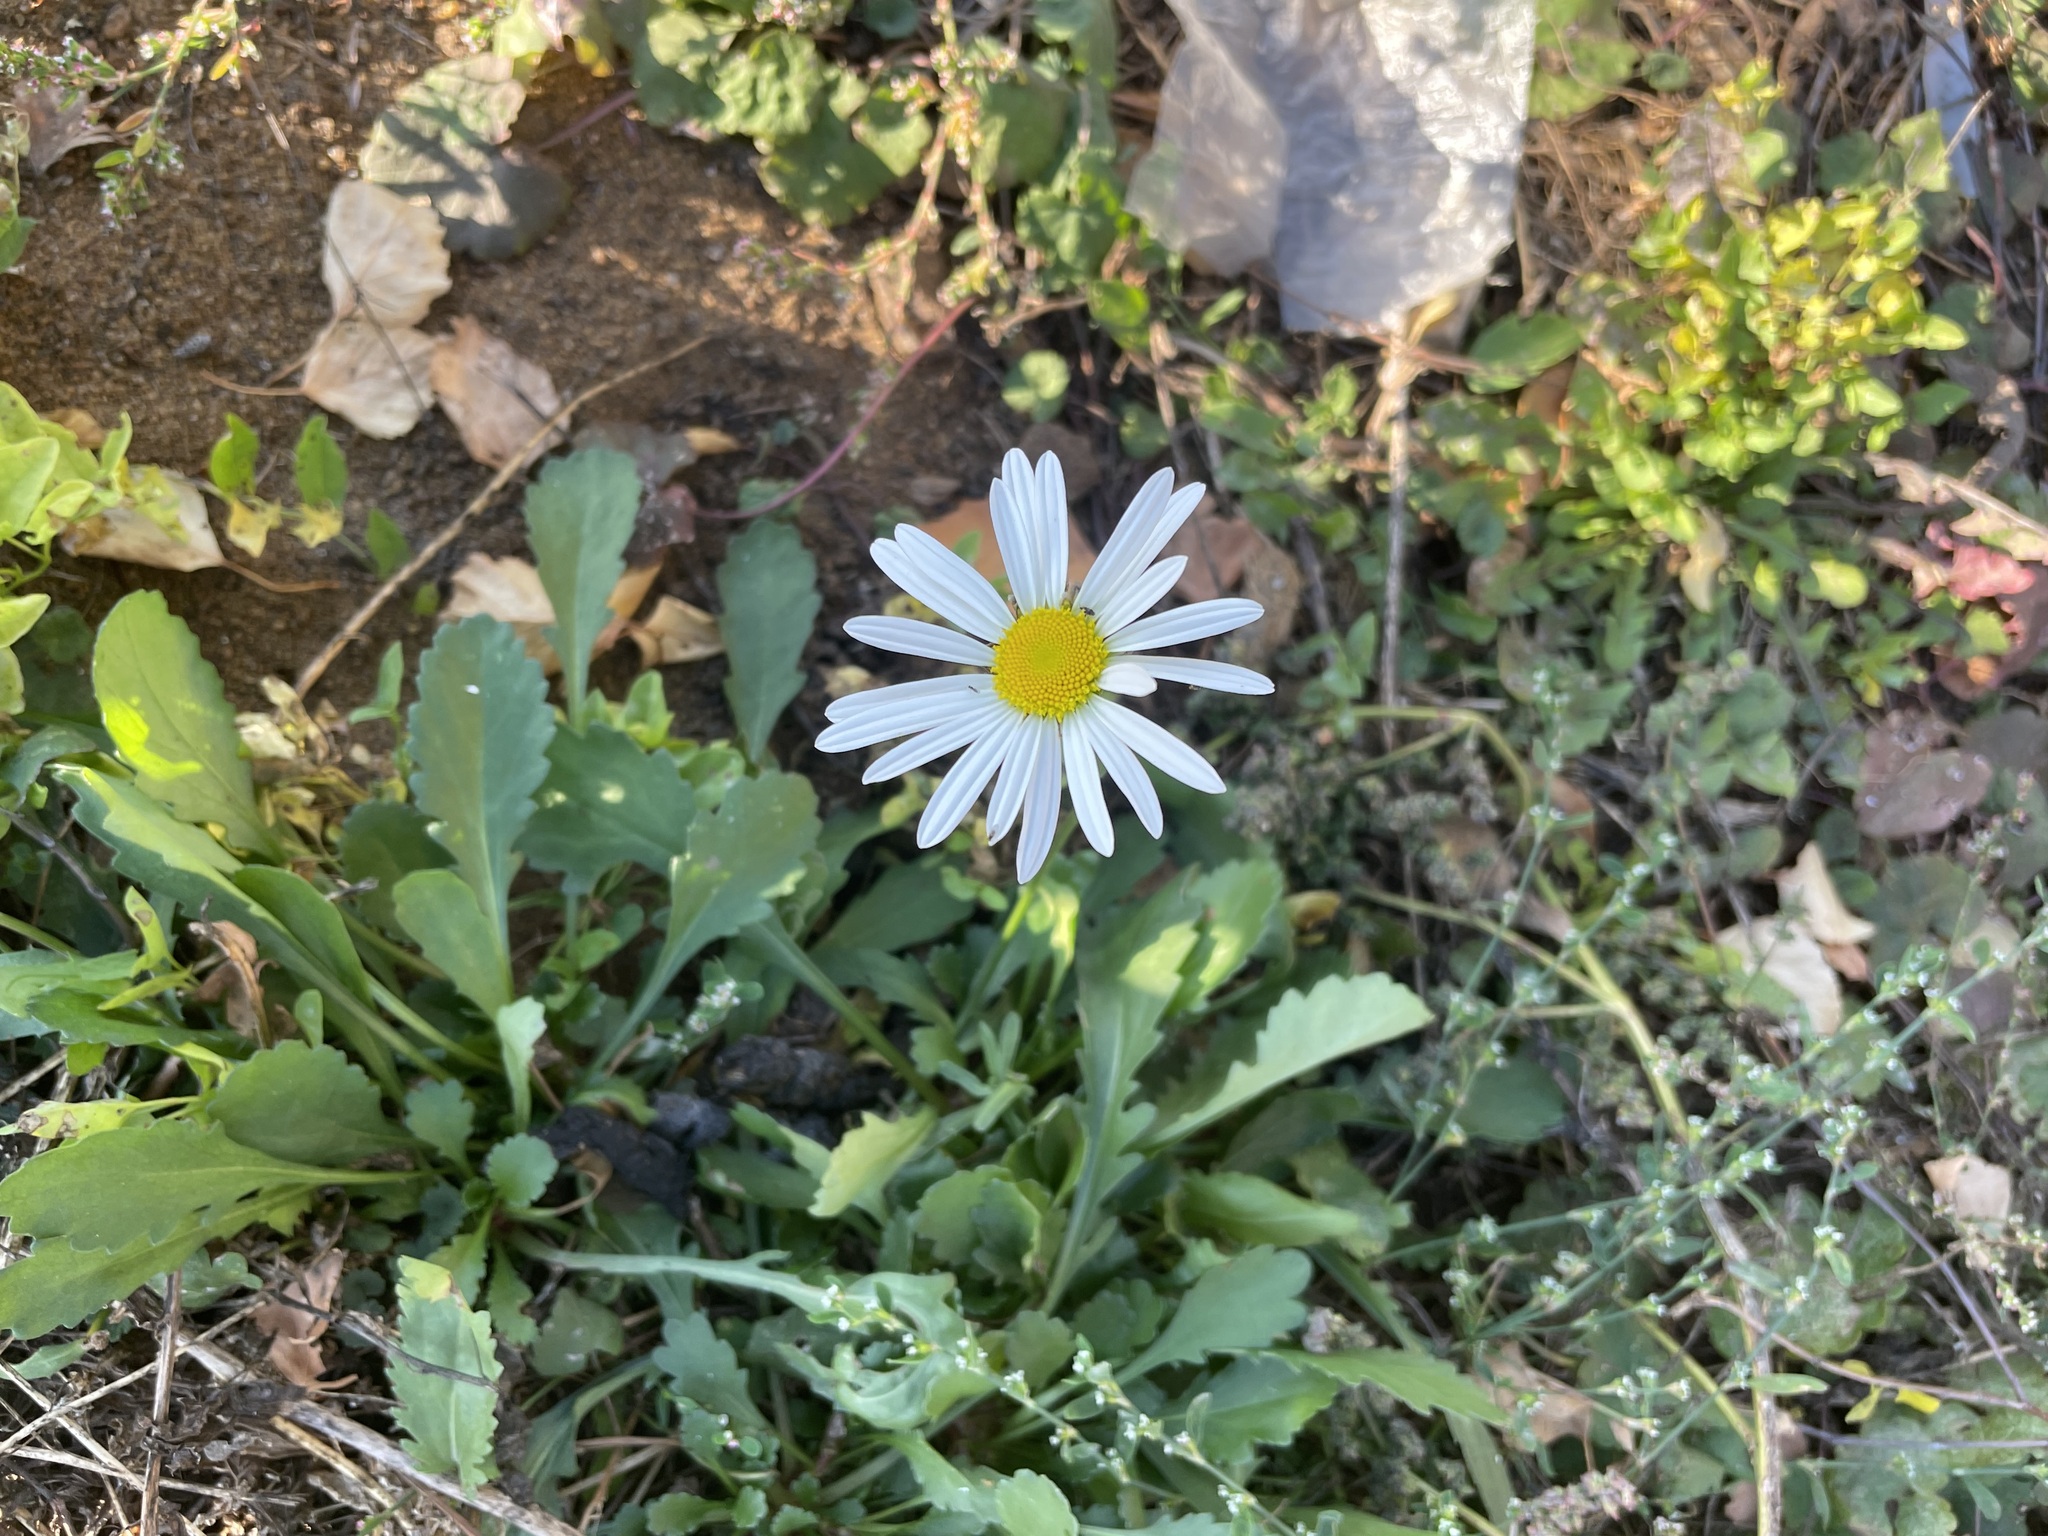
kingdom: Plantae
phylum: Tracheophyta
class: Magnoliopsida
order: Asterales
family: Asteraceae
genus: Leucanthemum
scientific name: Leucanthemum vulgare
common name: Oxeye daisy
